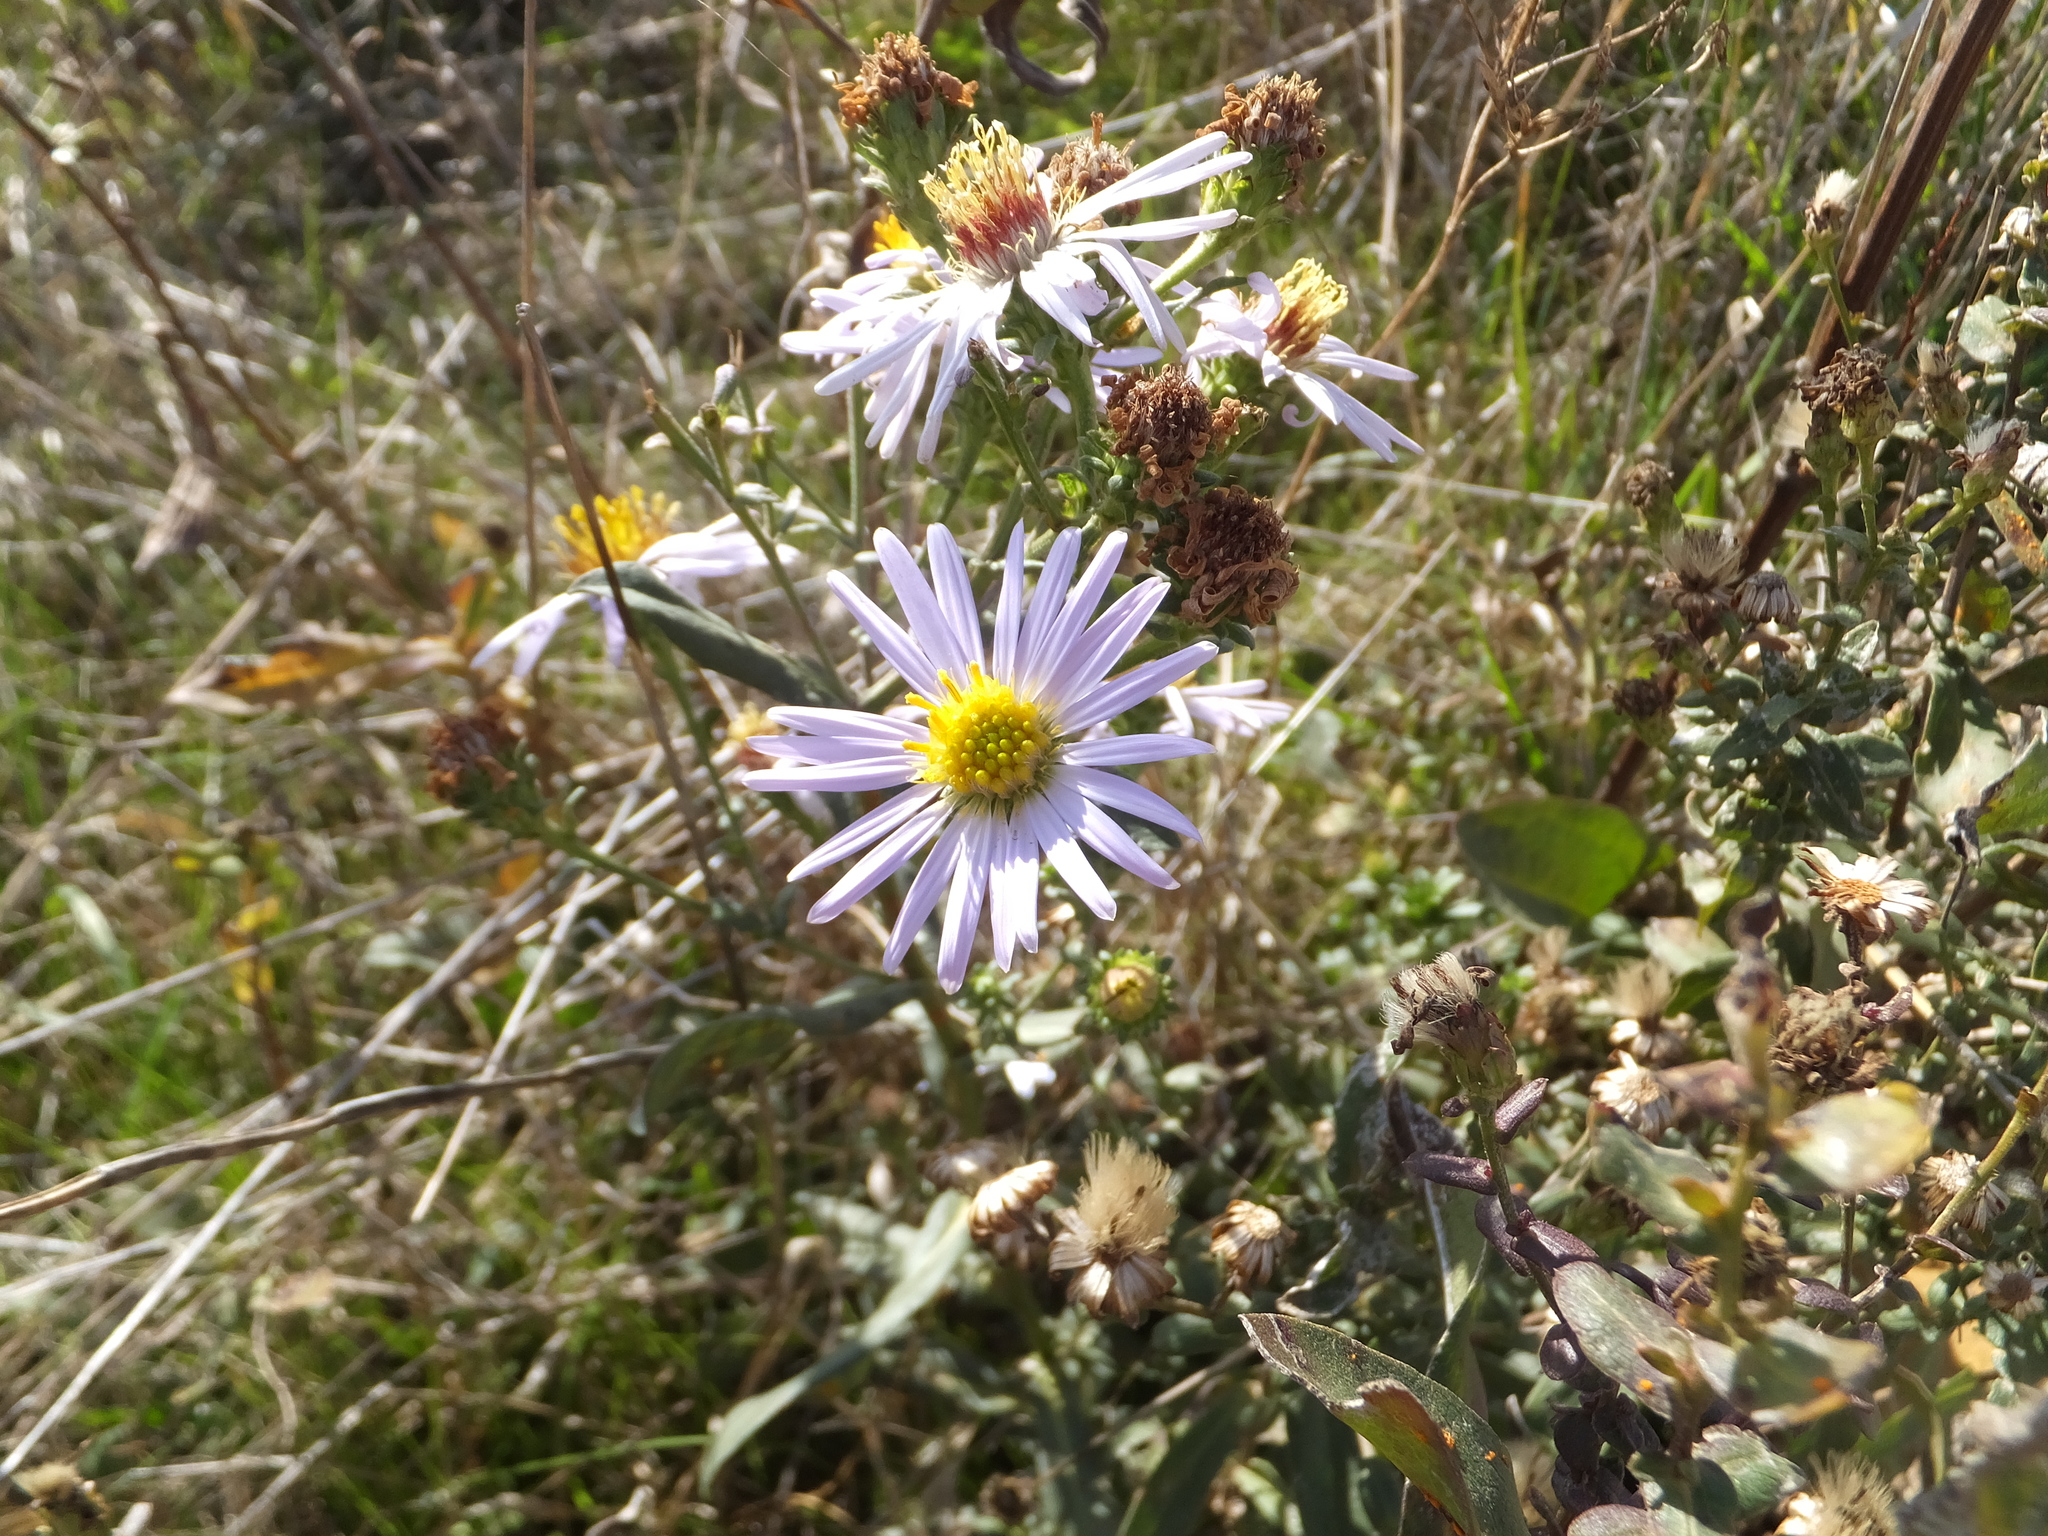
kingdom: Plantae
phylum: Tracheophyta
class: Magnoliopsida
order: Asterales
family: Asteraceae
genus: Symphyotrichum
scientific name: Symphyotrichum chilense
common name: Pacific aster
